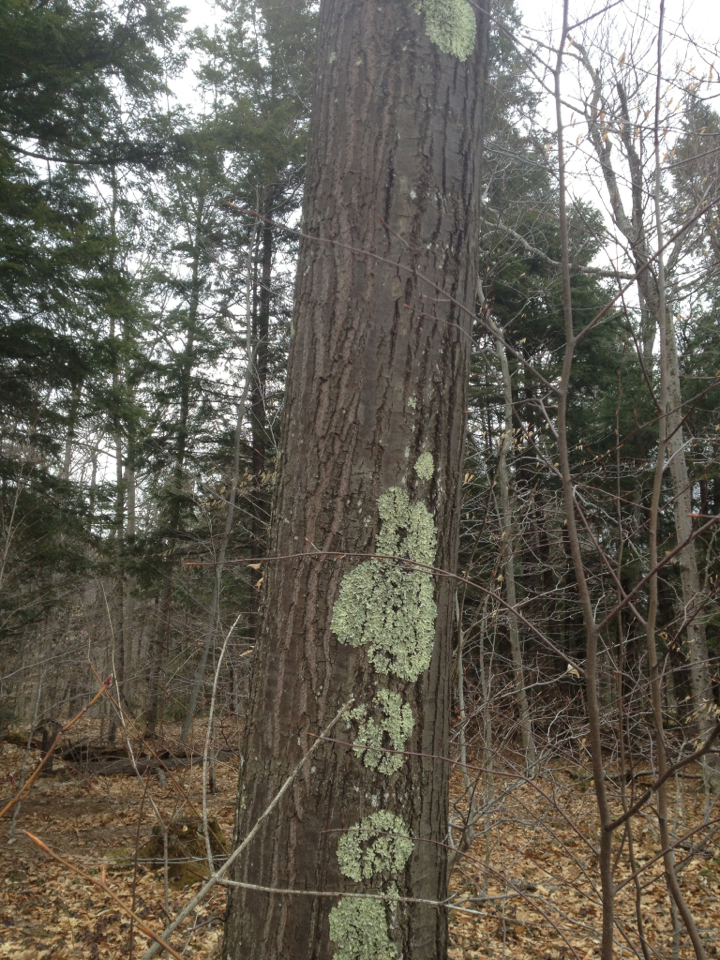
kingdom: Plantae
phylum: Tracheophyta
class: Magnoliopsida
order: Fagales
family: Fagaceae
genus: Quercus
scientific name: Quercus rubra
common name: Red oak
